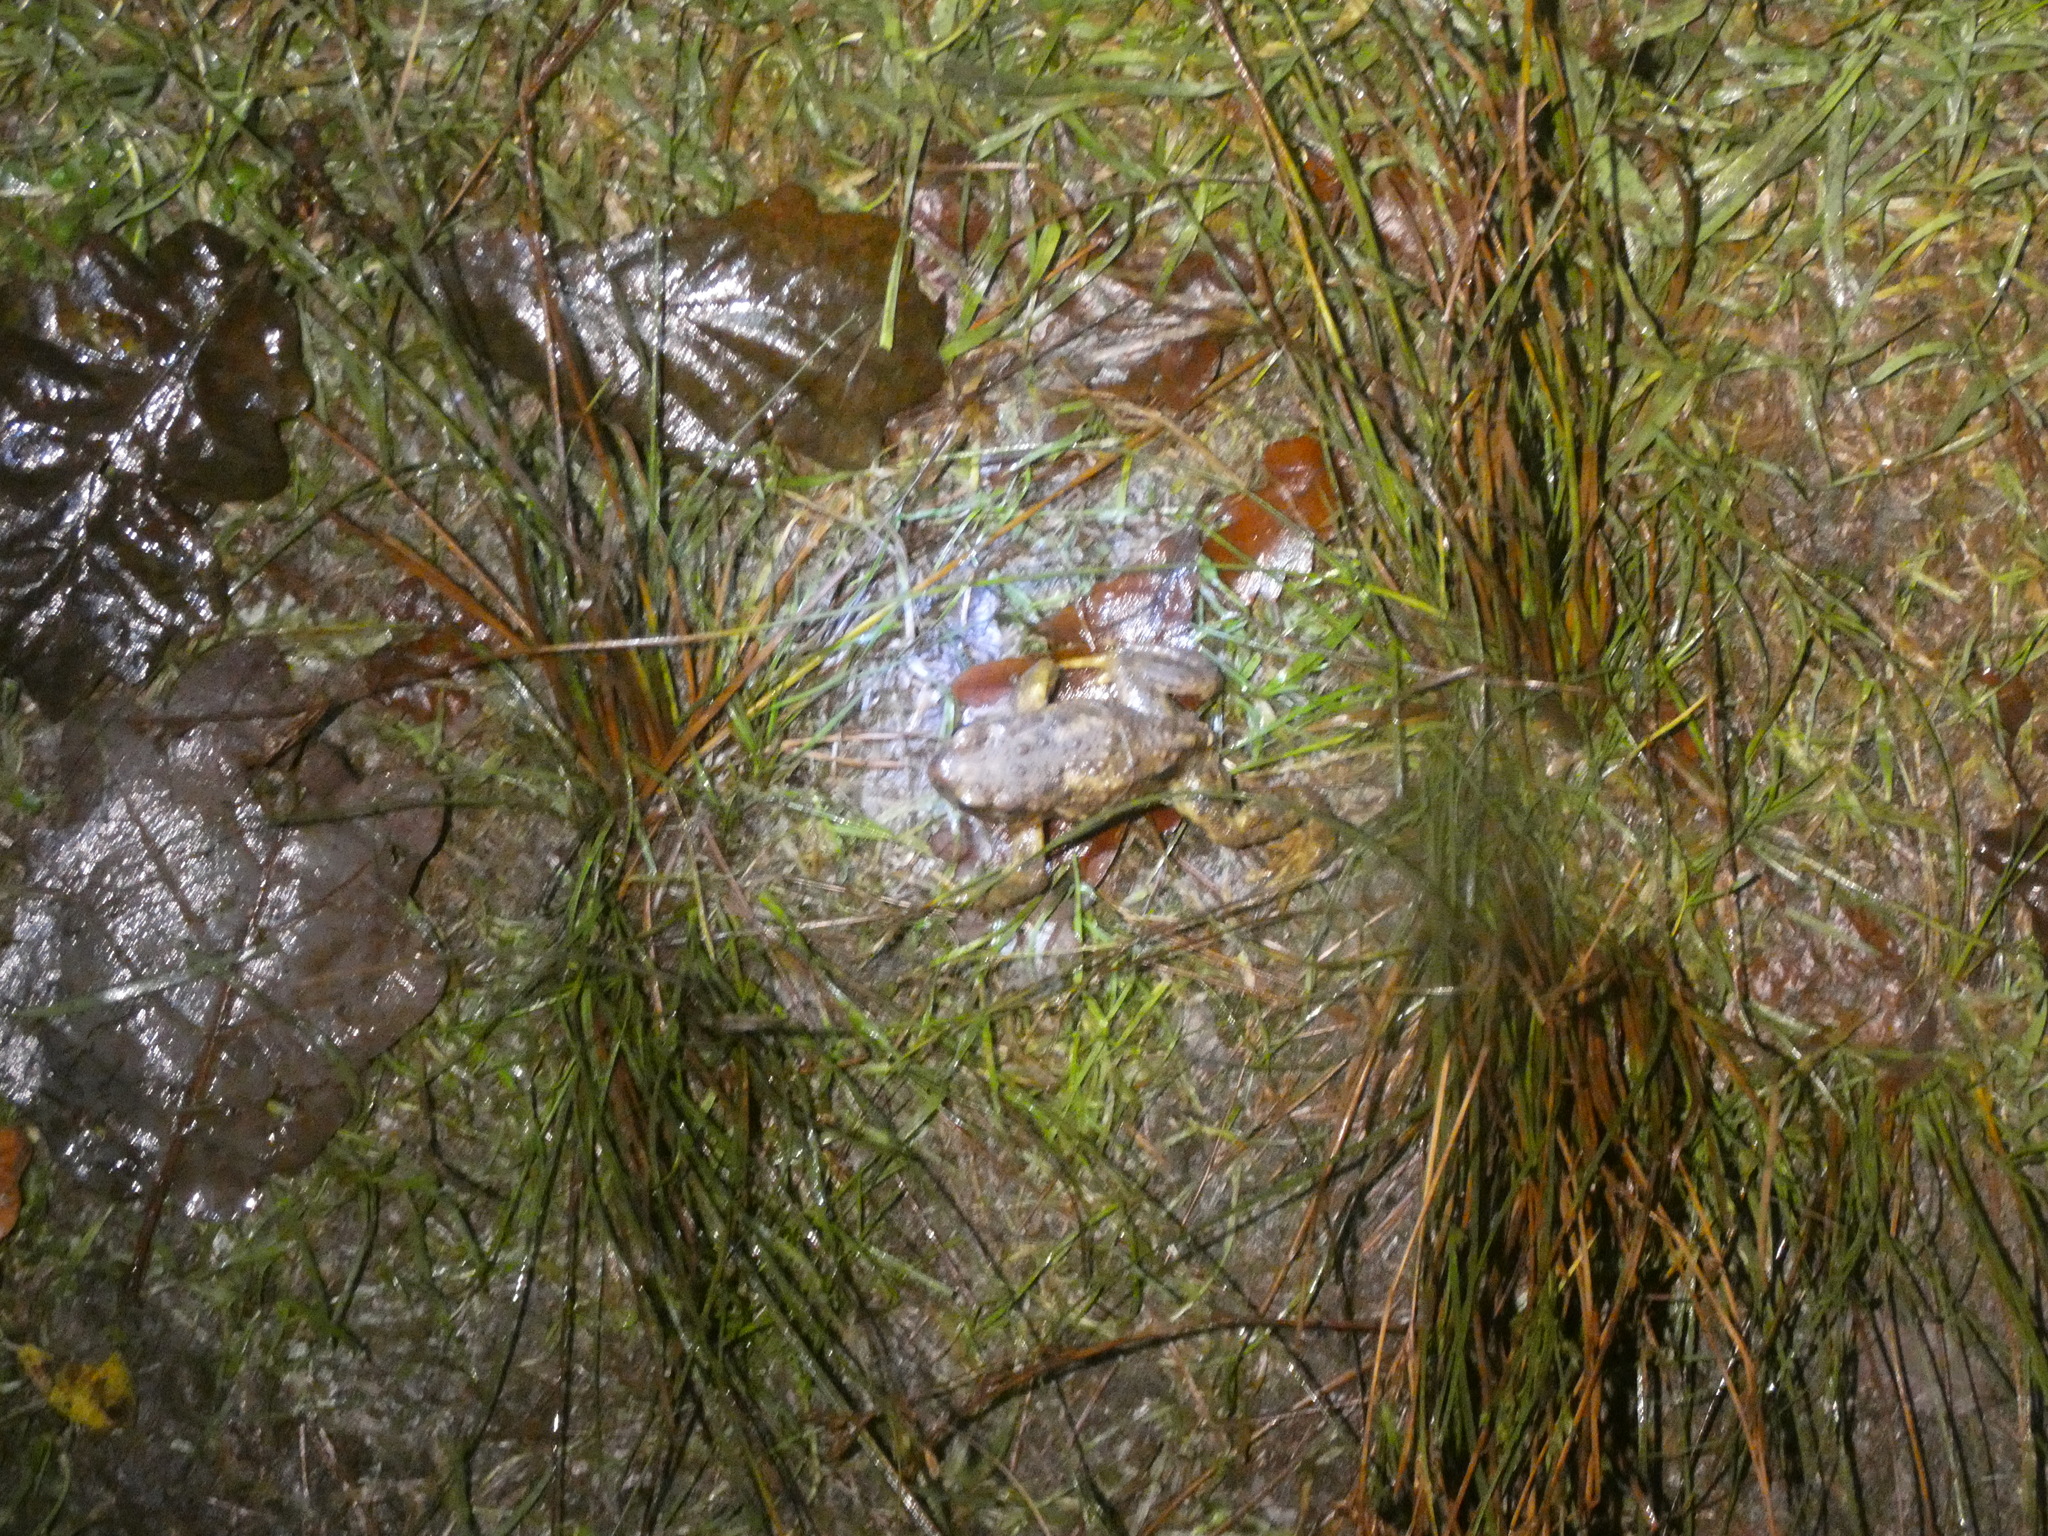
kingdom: Animalia
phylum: Chordata
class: Amphibia
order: Anura
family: Bufonidae
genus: Bufo
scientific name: Bufo bufo
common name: Common toad
